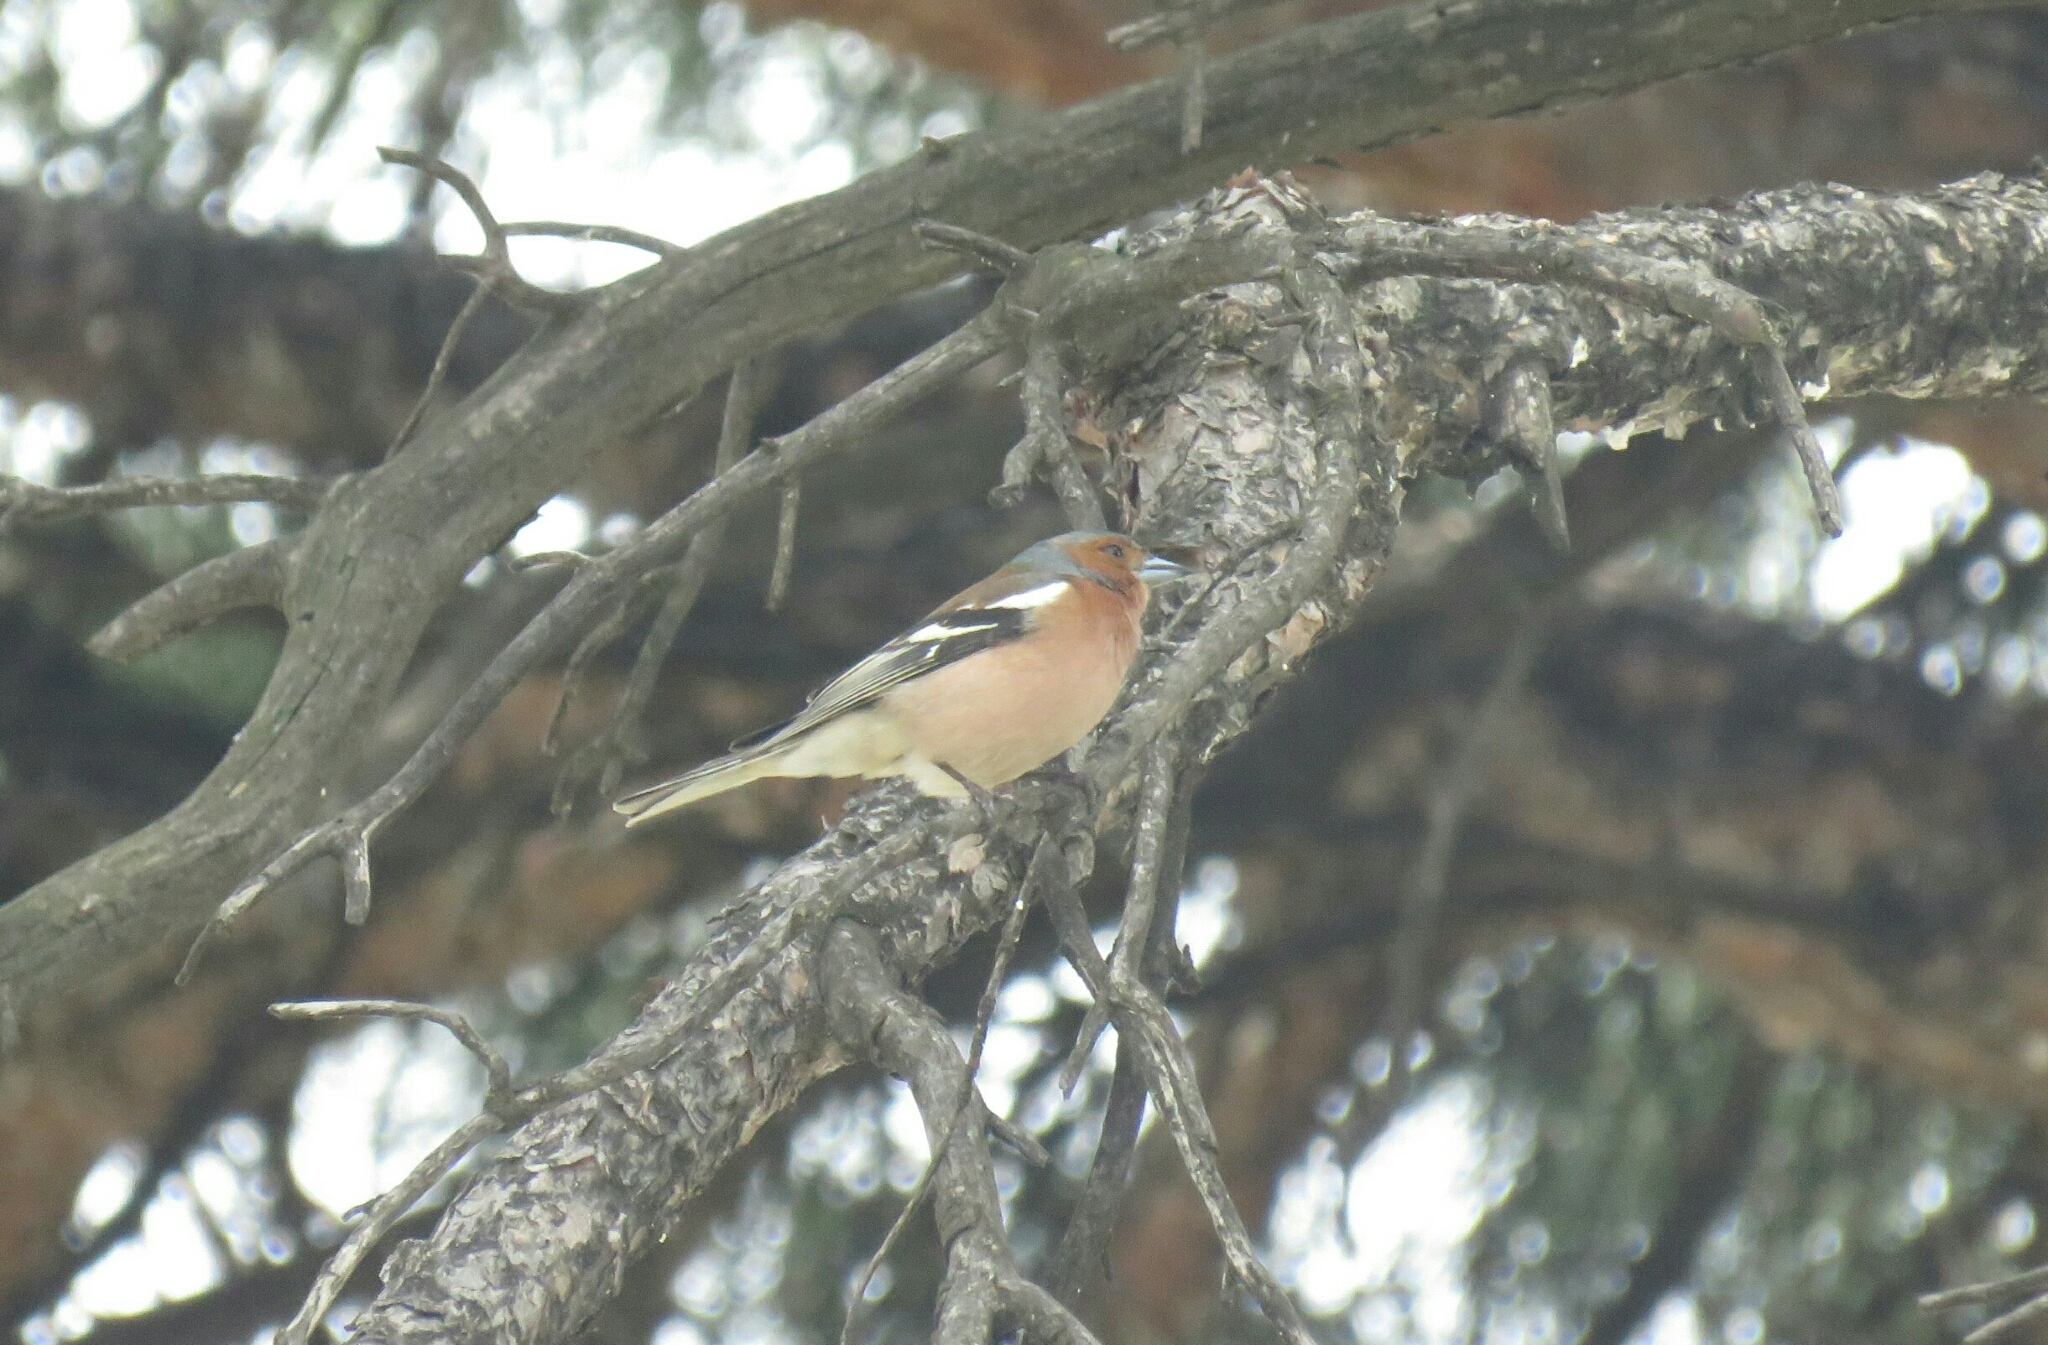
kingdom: Animalia
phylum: Chordata
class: Aves
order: Passeriformes
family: Fringillidae
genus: Fringilla
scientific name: Fringilla coelebs
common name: Common chaffinch
